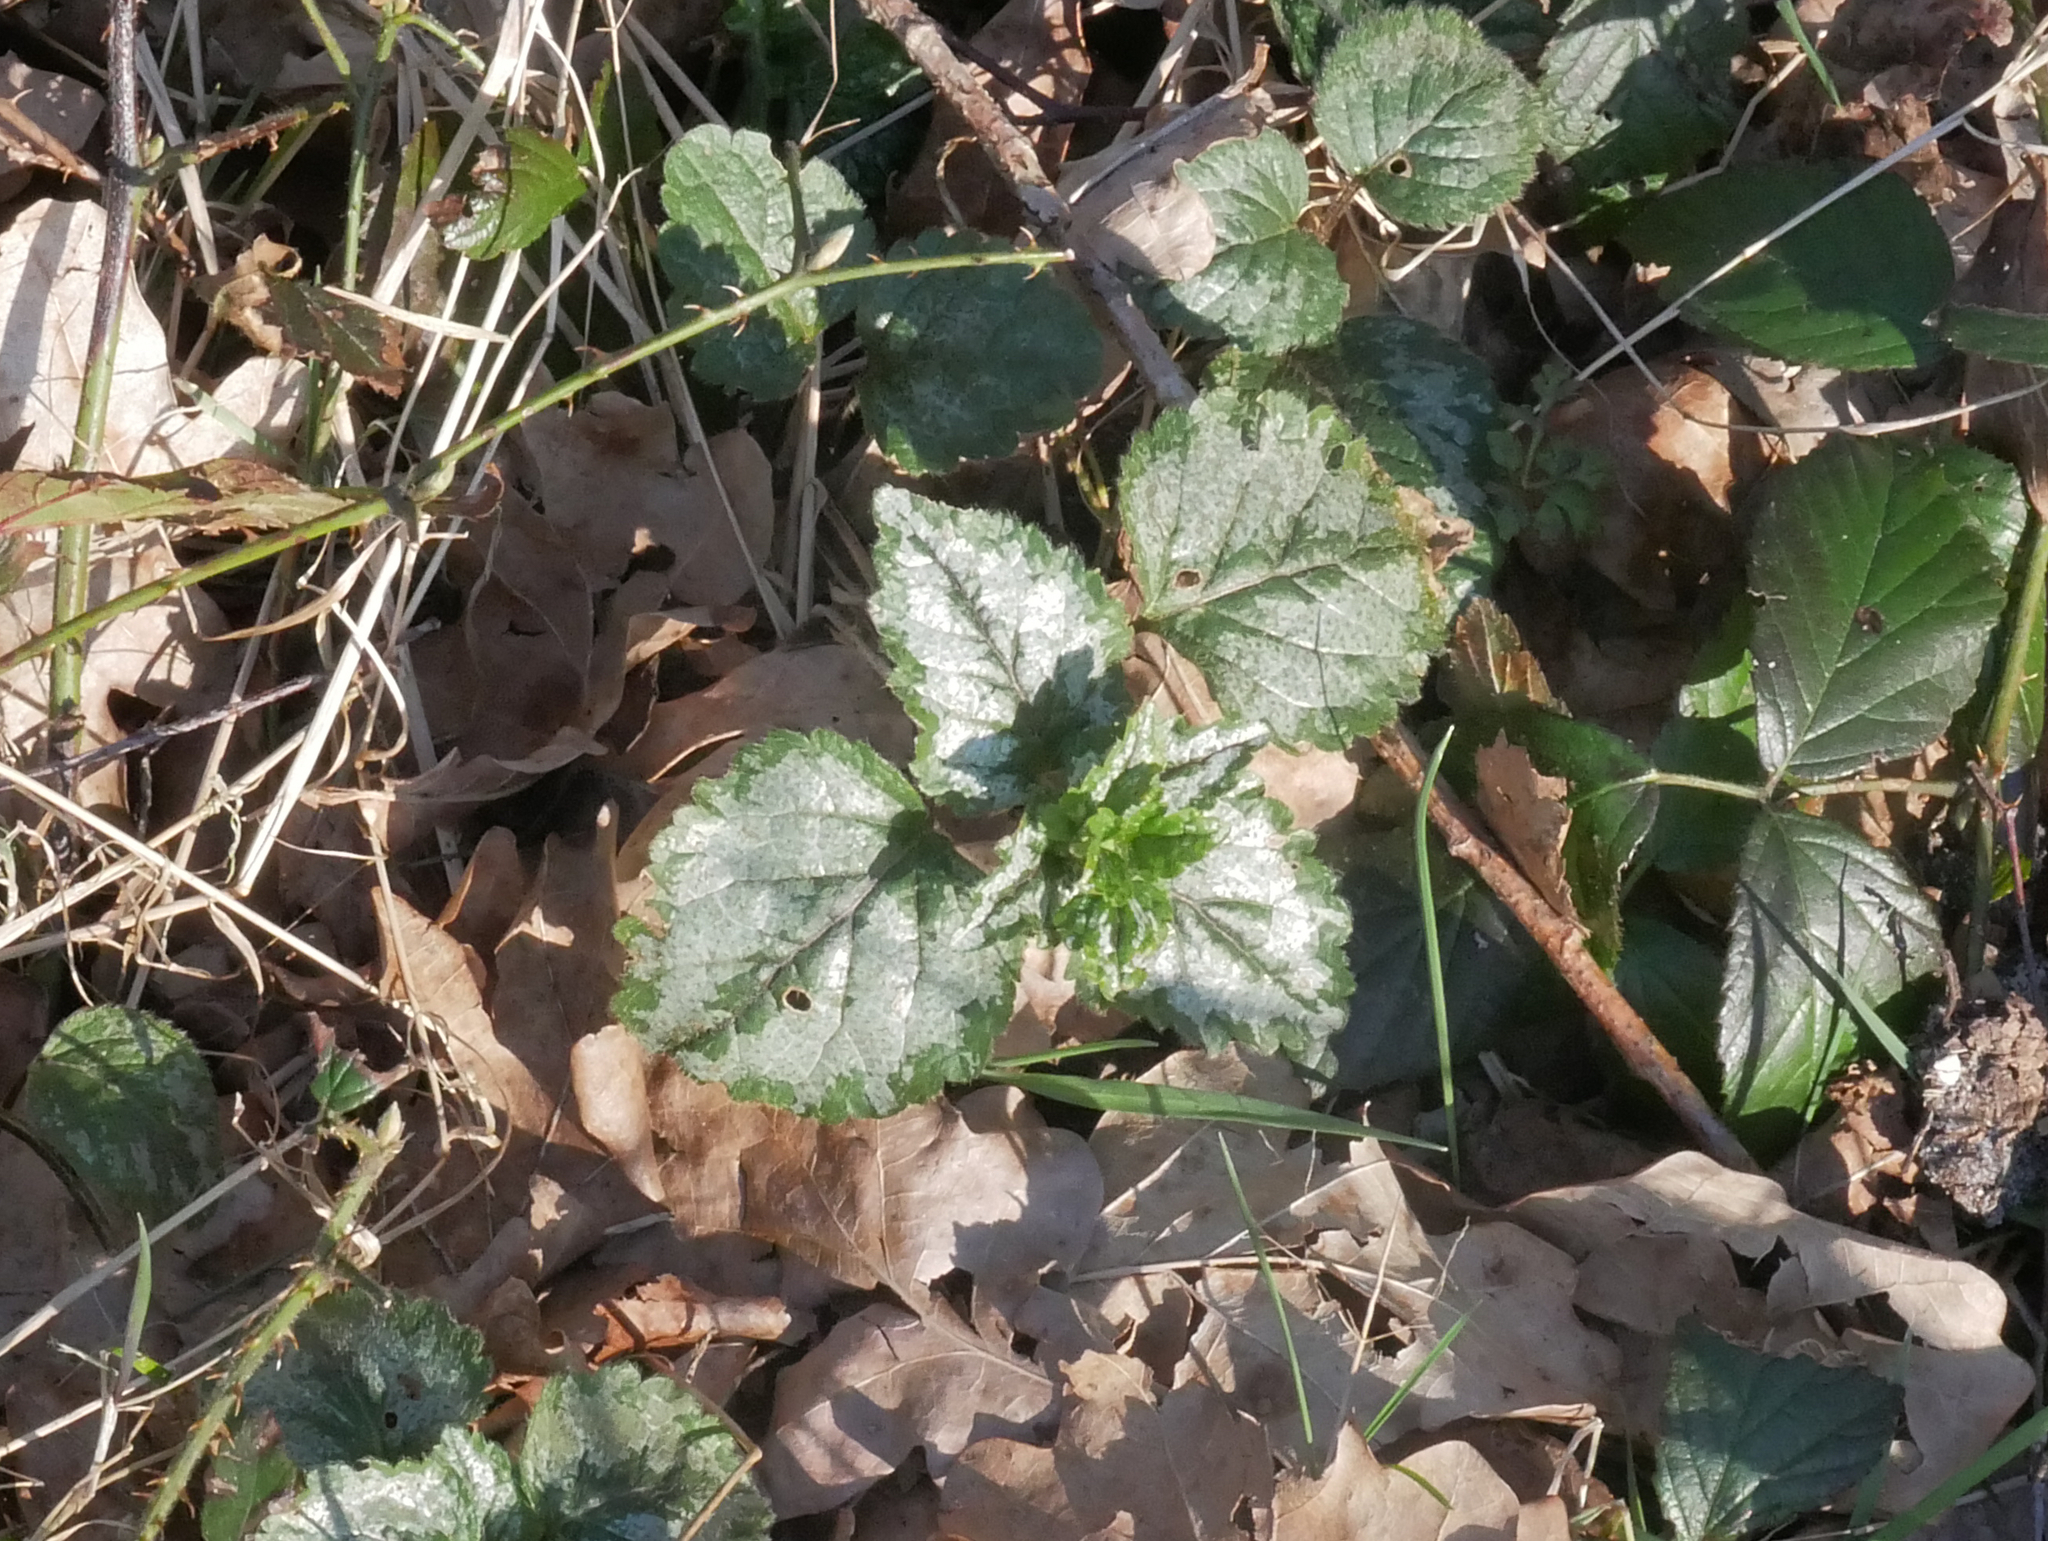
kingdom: Plantae
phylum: Tracheophyta
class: Magnoliopsida
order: Lamiales
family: Lamiaceae
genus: Lamium
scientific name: Lamium galeobdolon
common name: Yellow archangel
